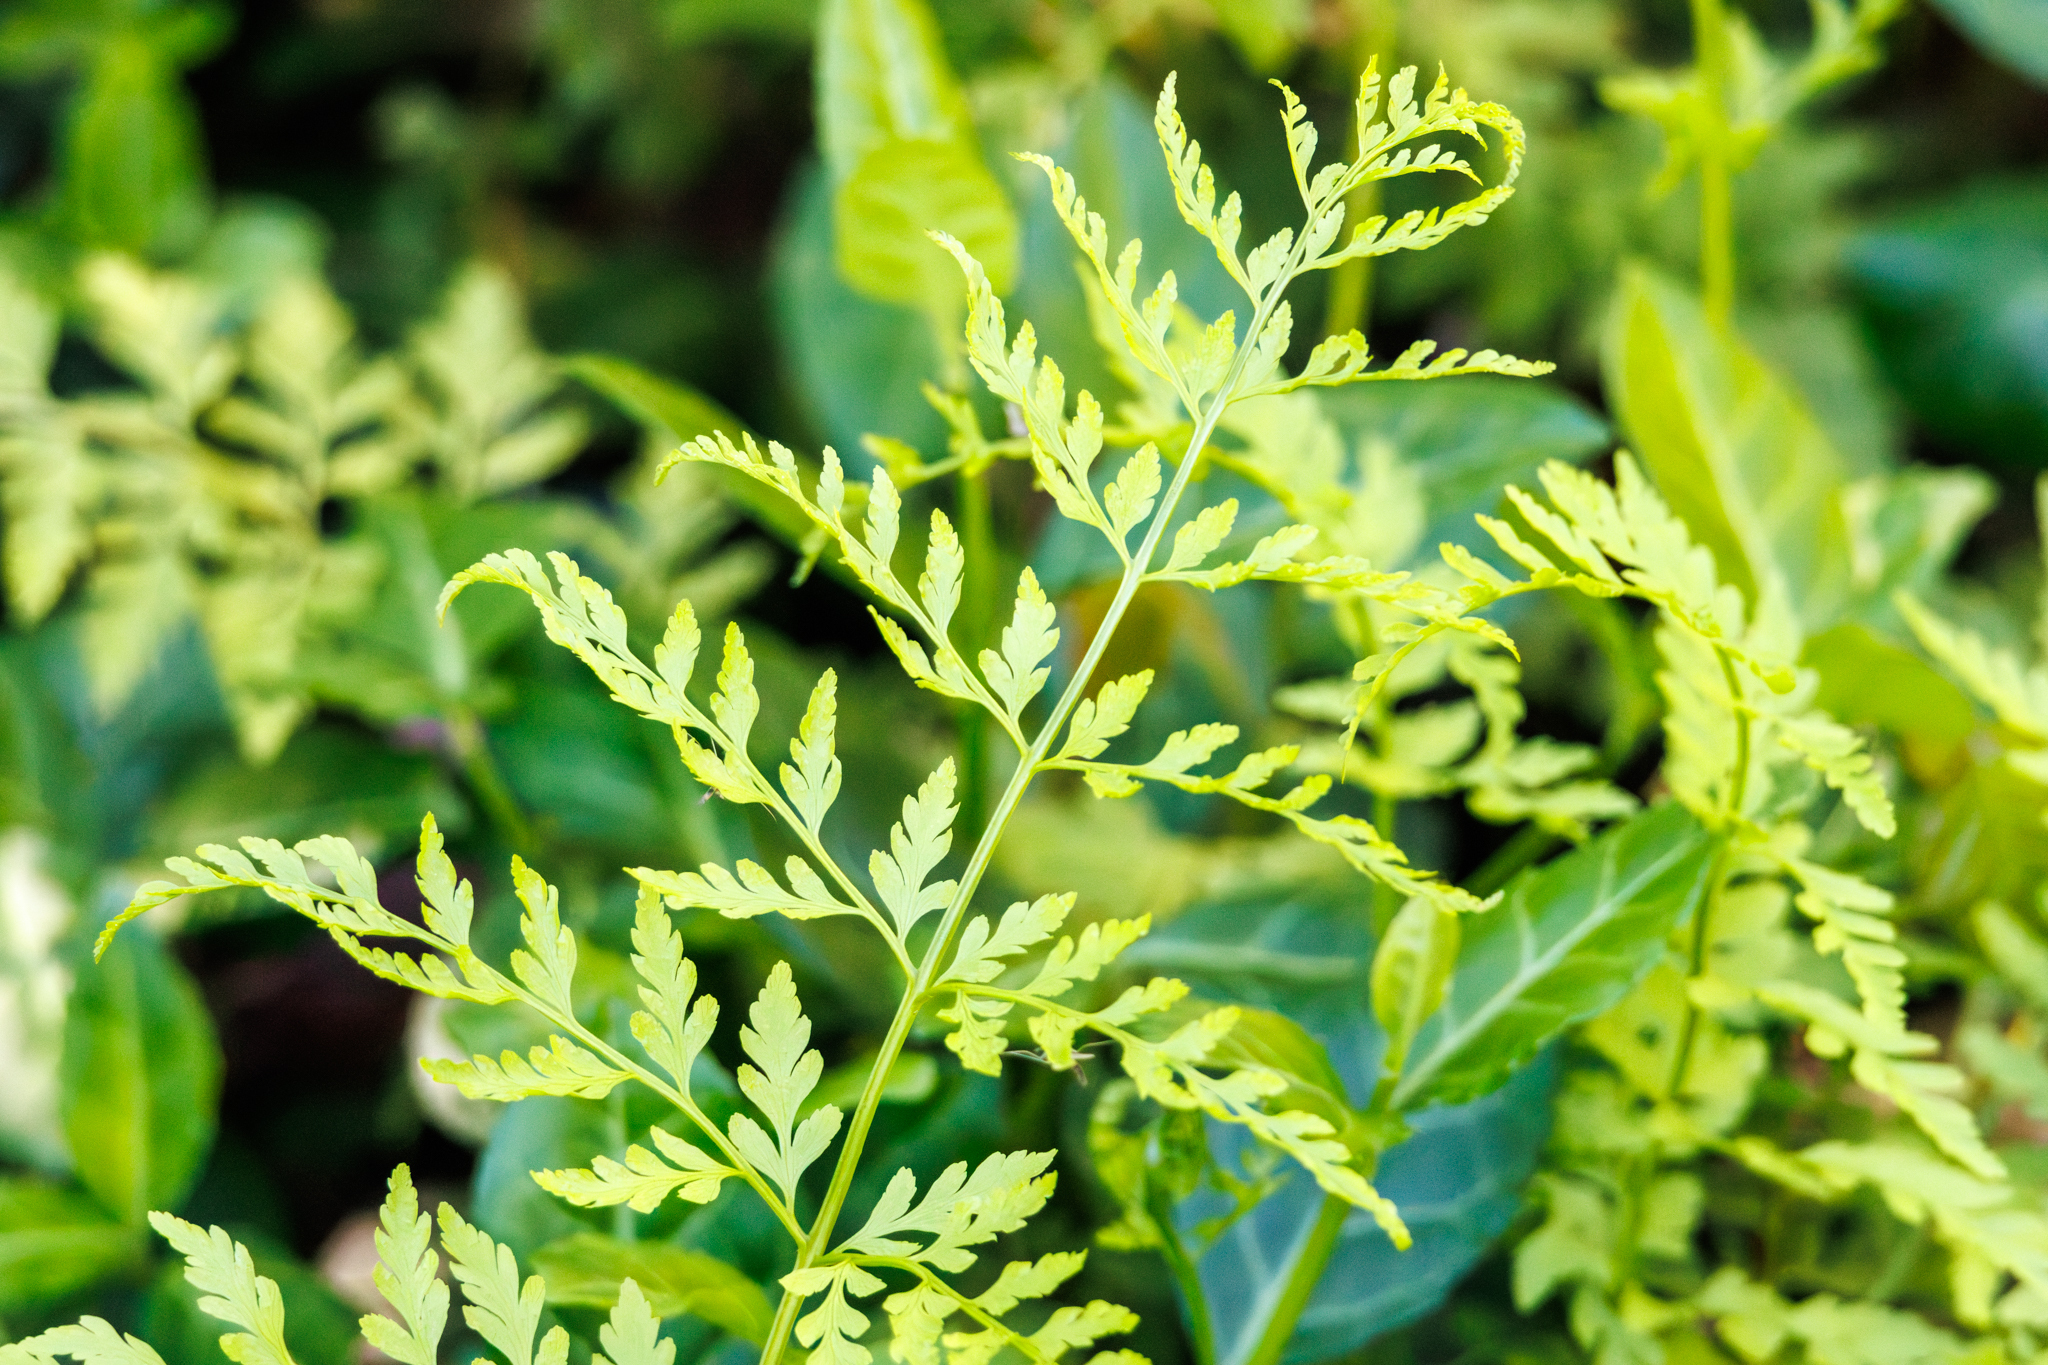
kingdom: Plantae
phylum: Tracheophyta
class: Polypodiopsida
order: Polypodiales
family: Cystopteridaceae
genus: Cystopteris
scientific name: Cystopteris protrusa
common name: Lowland brittle fern
